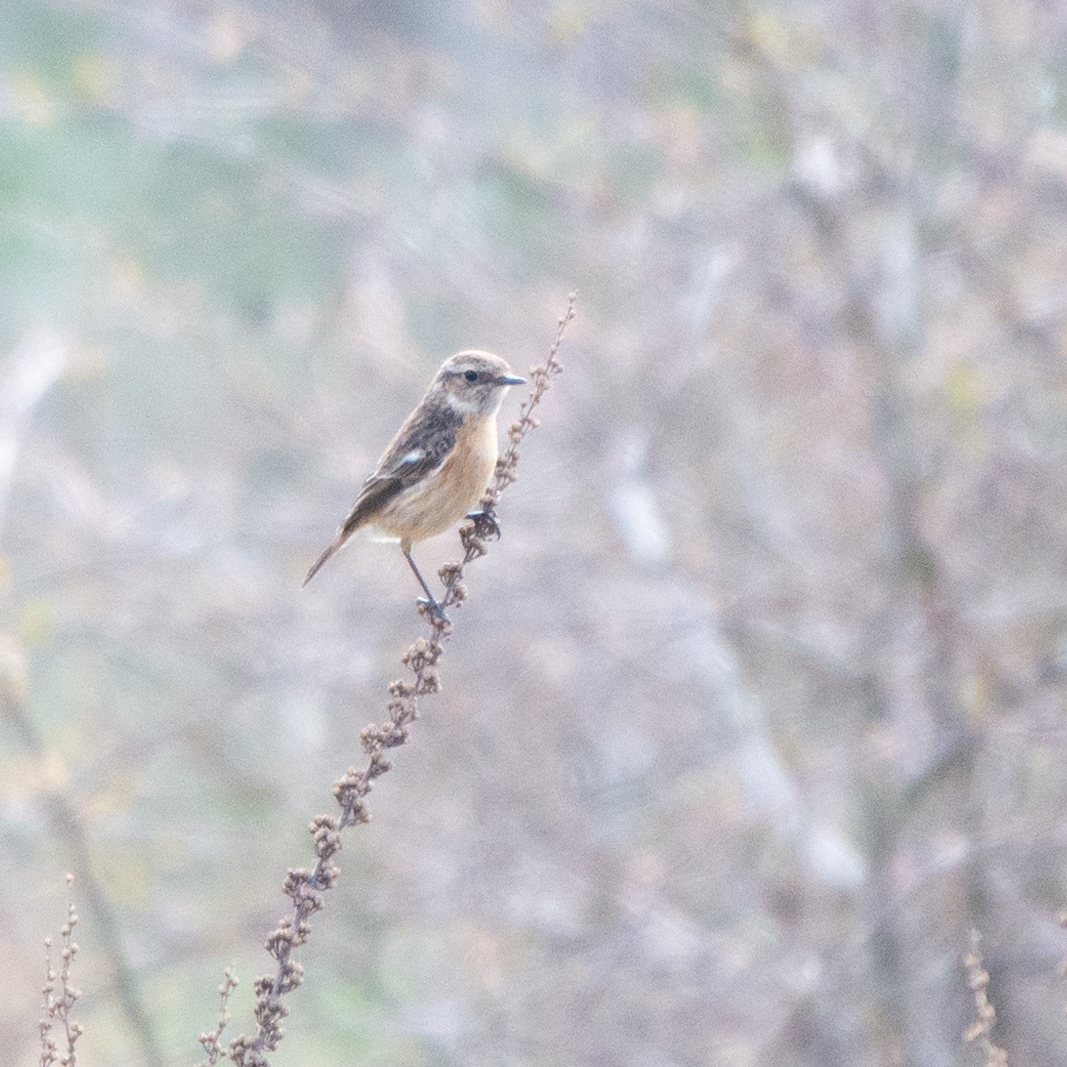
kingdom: Animalia
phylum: Chordata
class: Aves
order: Passeriformes
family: Muscicapidae
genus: Saxicola
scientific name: Saxicola rubicola
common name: European stonechat
